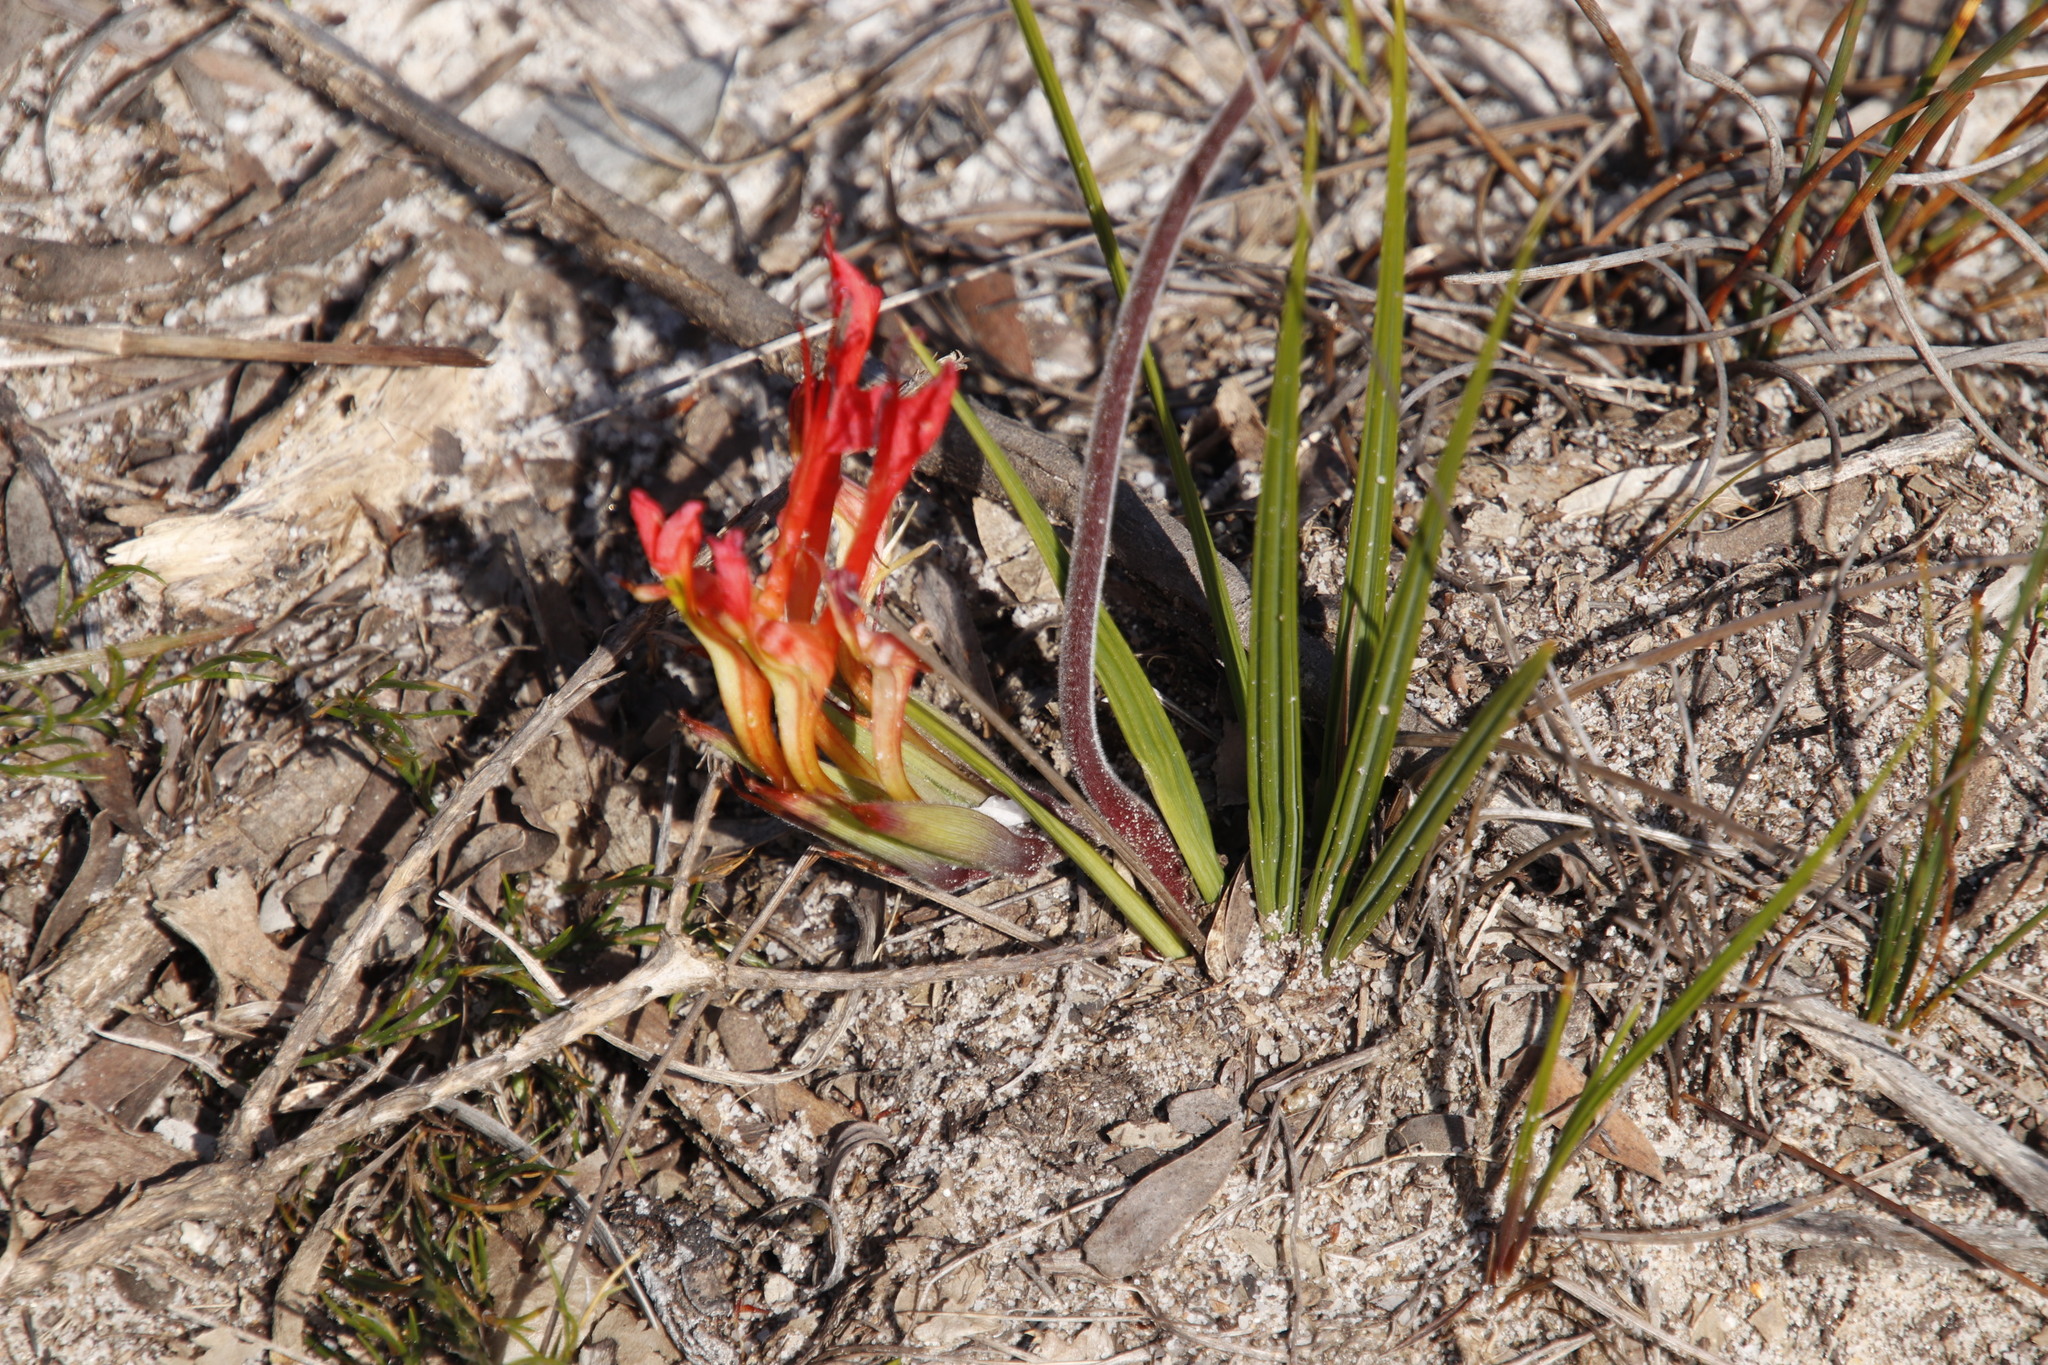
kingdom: Plantae
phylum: Tracheophyta
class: Liliopsida
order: Asparagales
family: Iridaceae
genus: Babiana
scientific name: Babiana ringens
